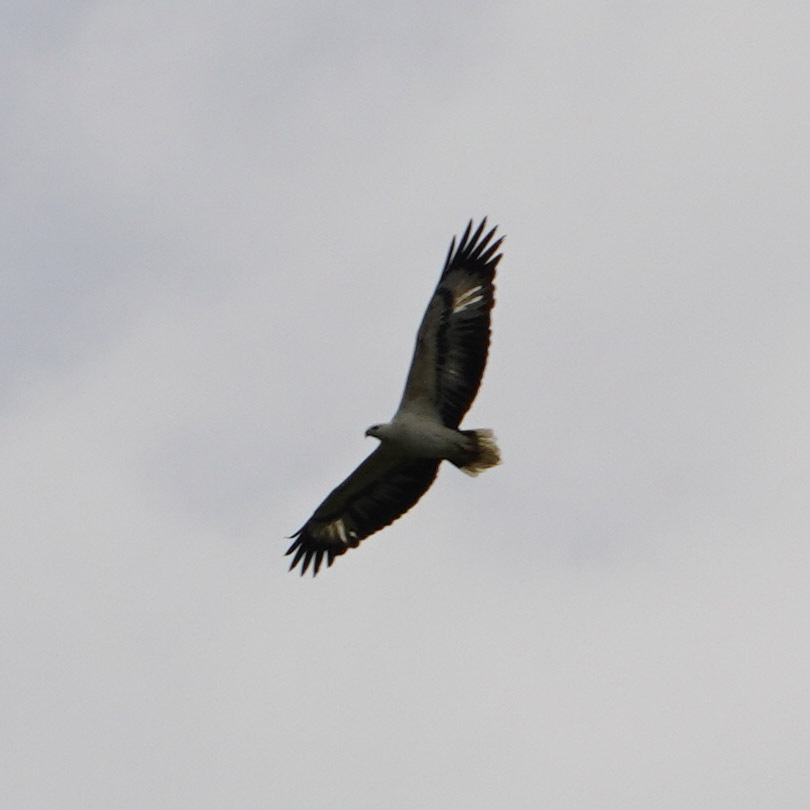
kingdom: Animalia
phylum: Chordata
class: Aves
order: Accipitriformes
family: Accipitridae
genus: Haliaeetus
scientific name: Haliaeetus leucogaster
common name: White-bellied sea eagle
